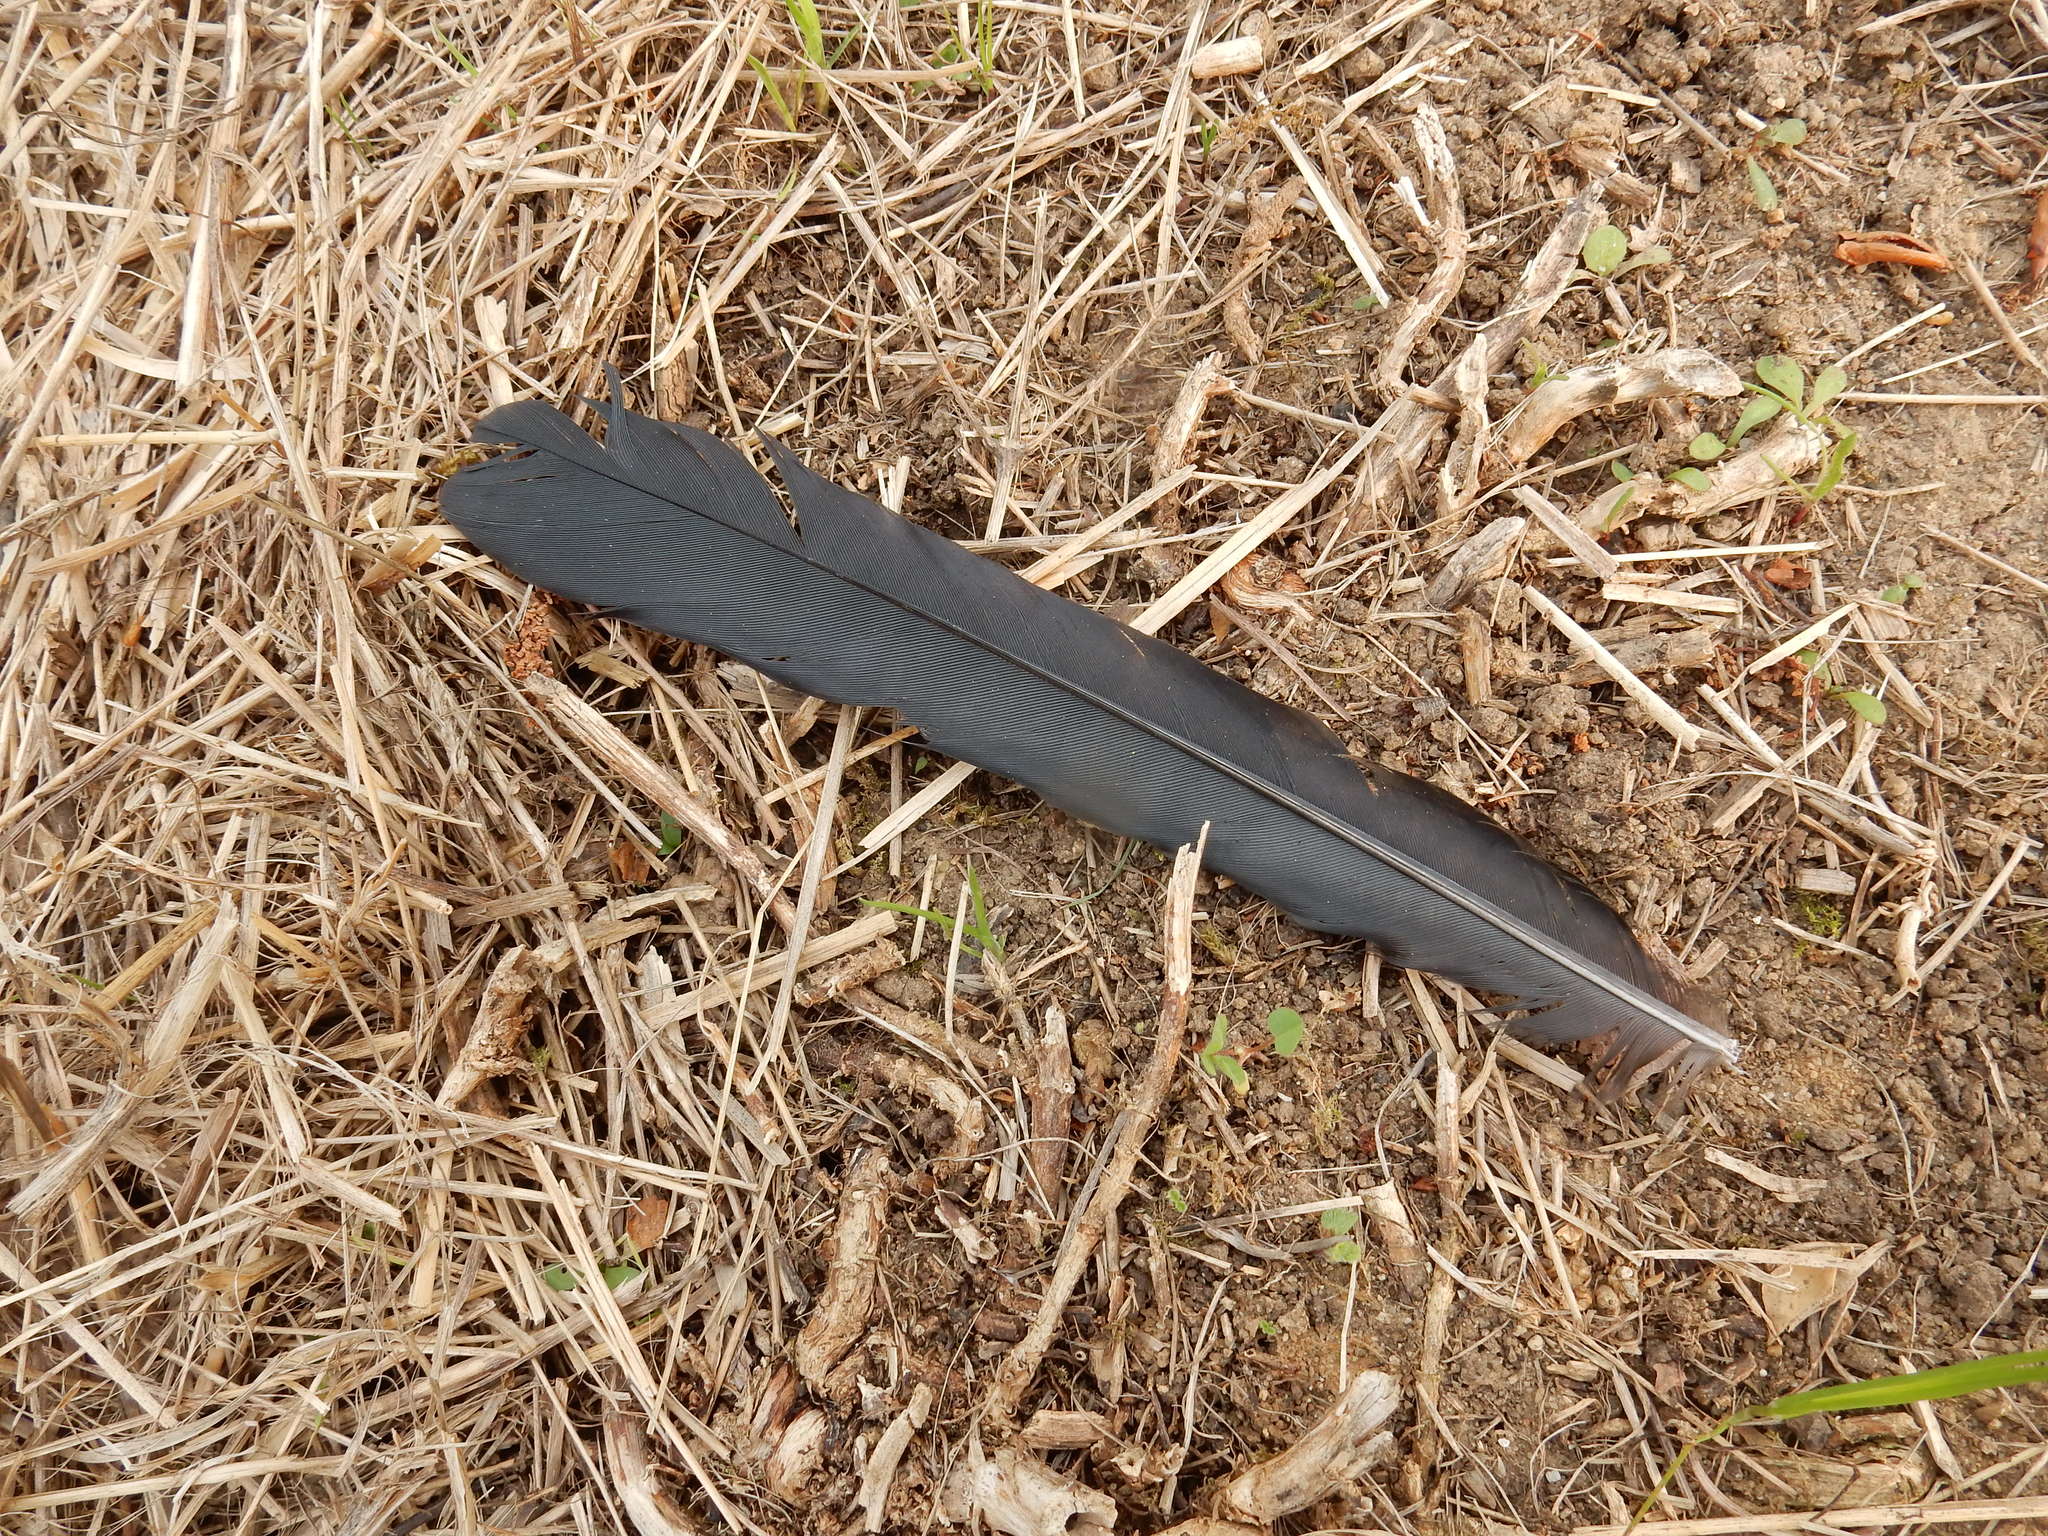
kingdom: Animalia
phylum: Chordata
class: Aves
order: Passeriformes
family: Corvidae
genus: Pica
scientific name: Pica pica
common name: Eurasian magpie
